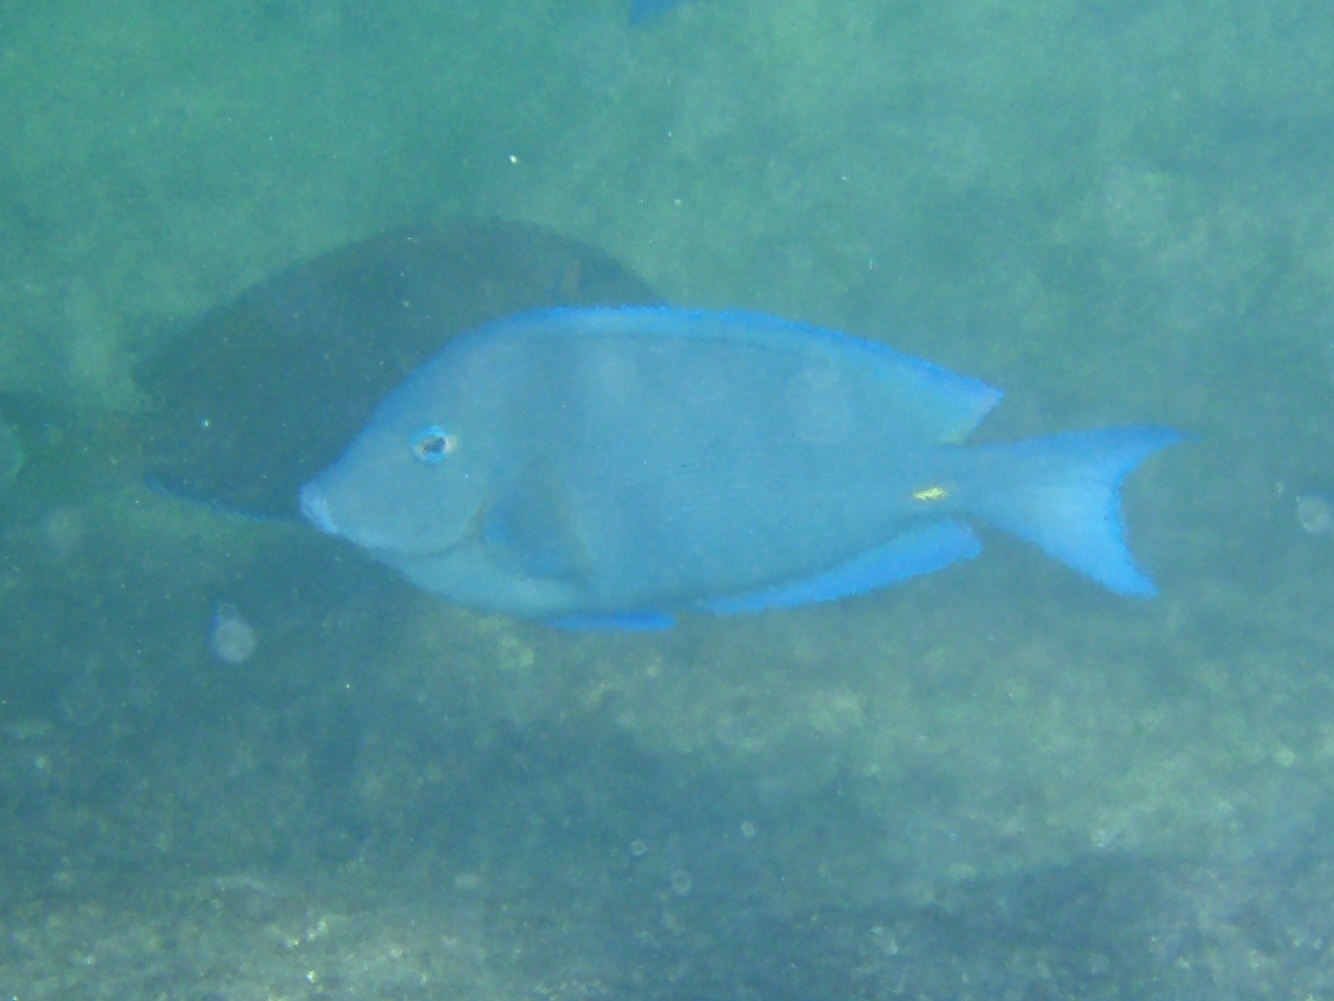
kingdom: Animalia
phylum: Chordata
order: Perciformes
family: Acanthuridae
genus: Acanthurus
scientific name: Acanthurus coeruleus
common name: Blue tang
